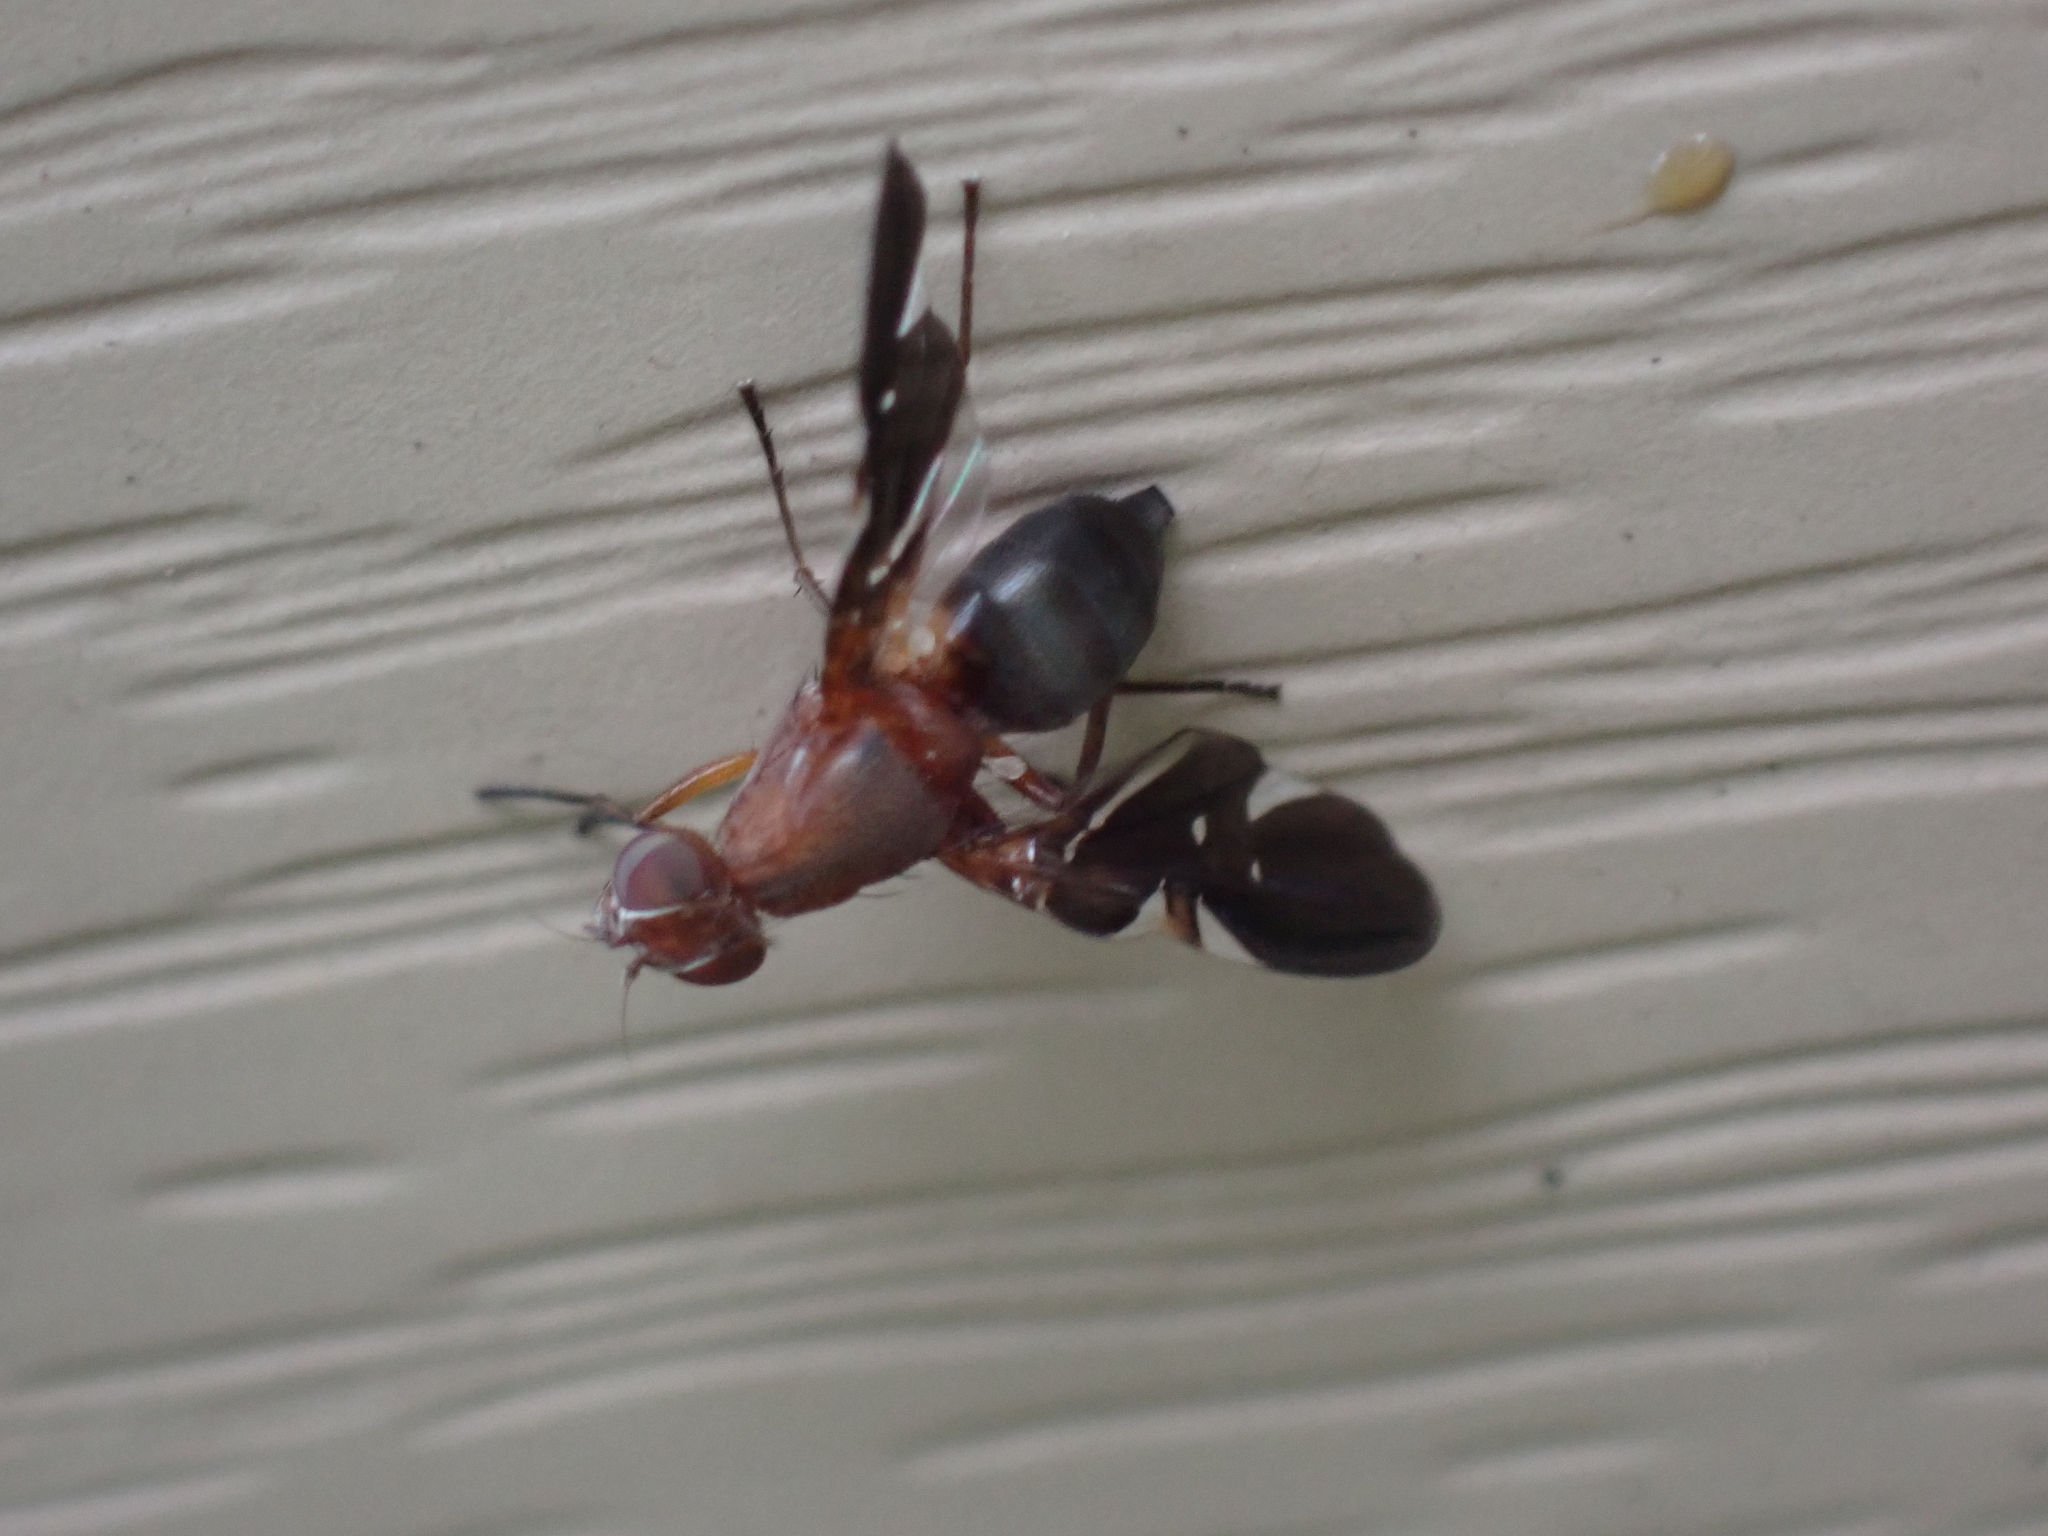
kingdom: Animalia
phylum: Arthropoda
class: Insecta
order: Diptera
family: Ulidiidae
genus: Delphinia
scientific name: Delphinia picta
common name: Common picture-winged fly
